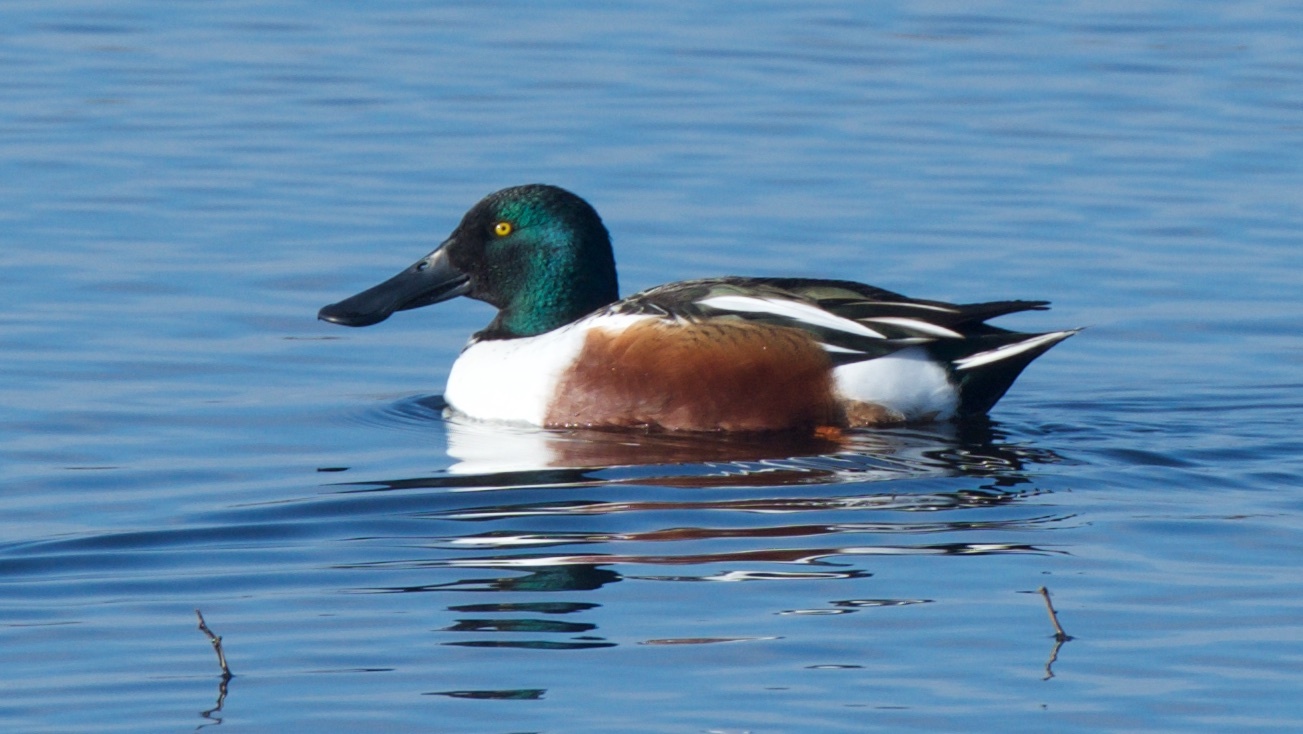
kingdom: Animalia
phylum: Chordata
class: Aves
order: Anseriformes
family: Anatidae
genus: Spatula
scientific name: Spatula clypeata
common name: Northern shoveler
